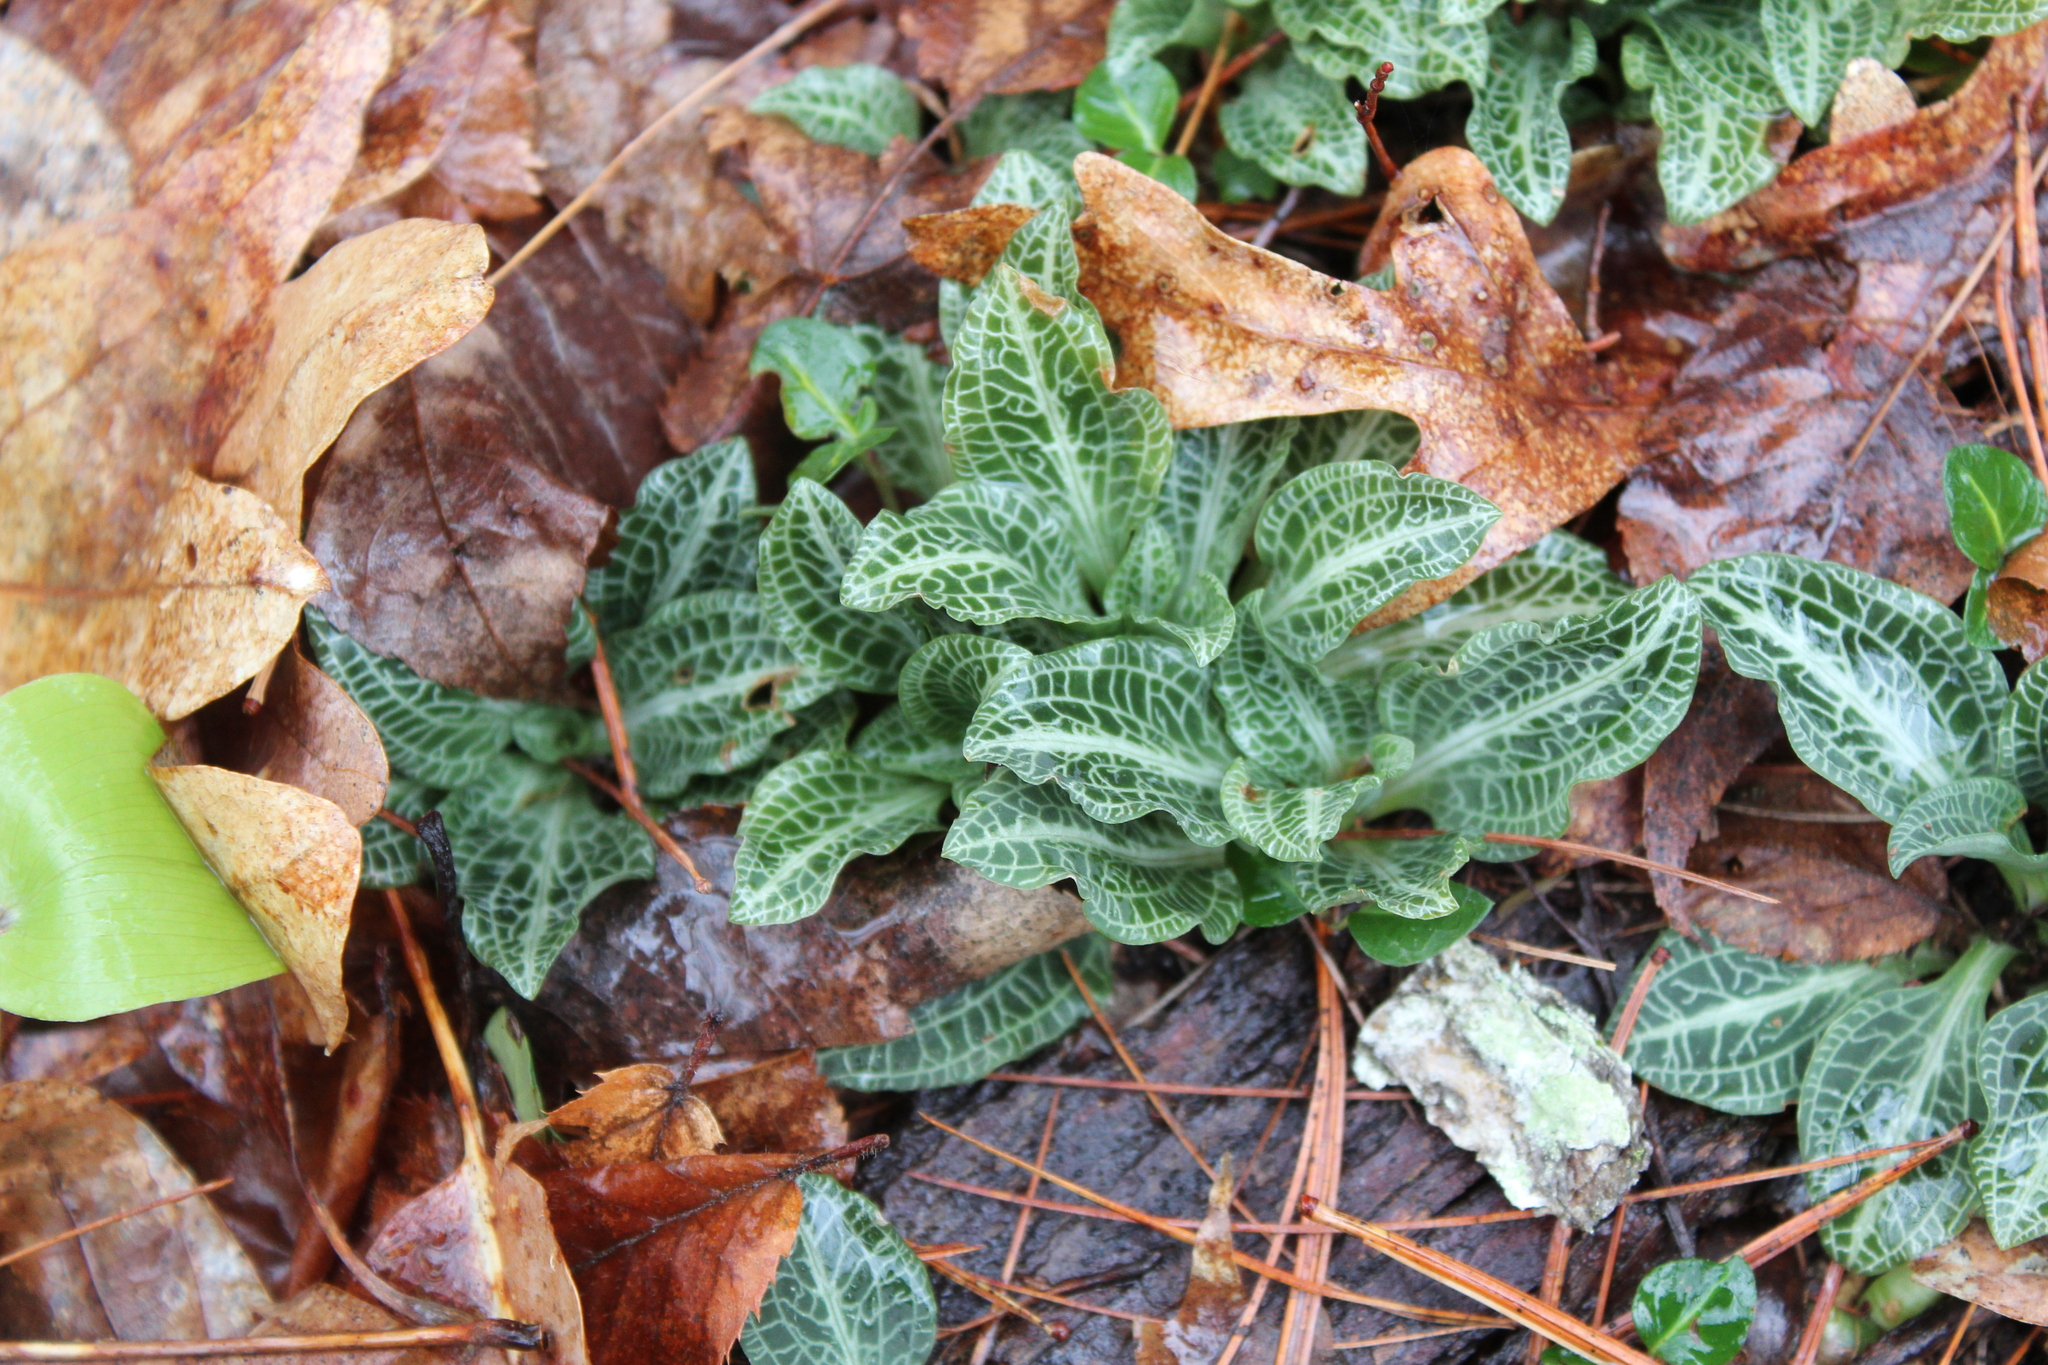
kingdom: Plantae
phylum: Tracheophyta
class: Liliopsida
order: Asparagales
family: Orchidaceae
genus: Goodyera
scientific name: Goodyera pubescens
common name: Downy rattlesnake-plantain
